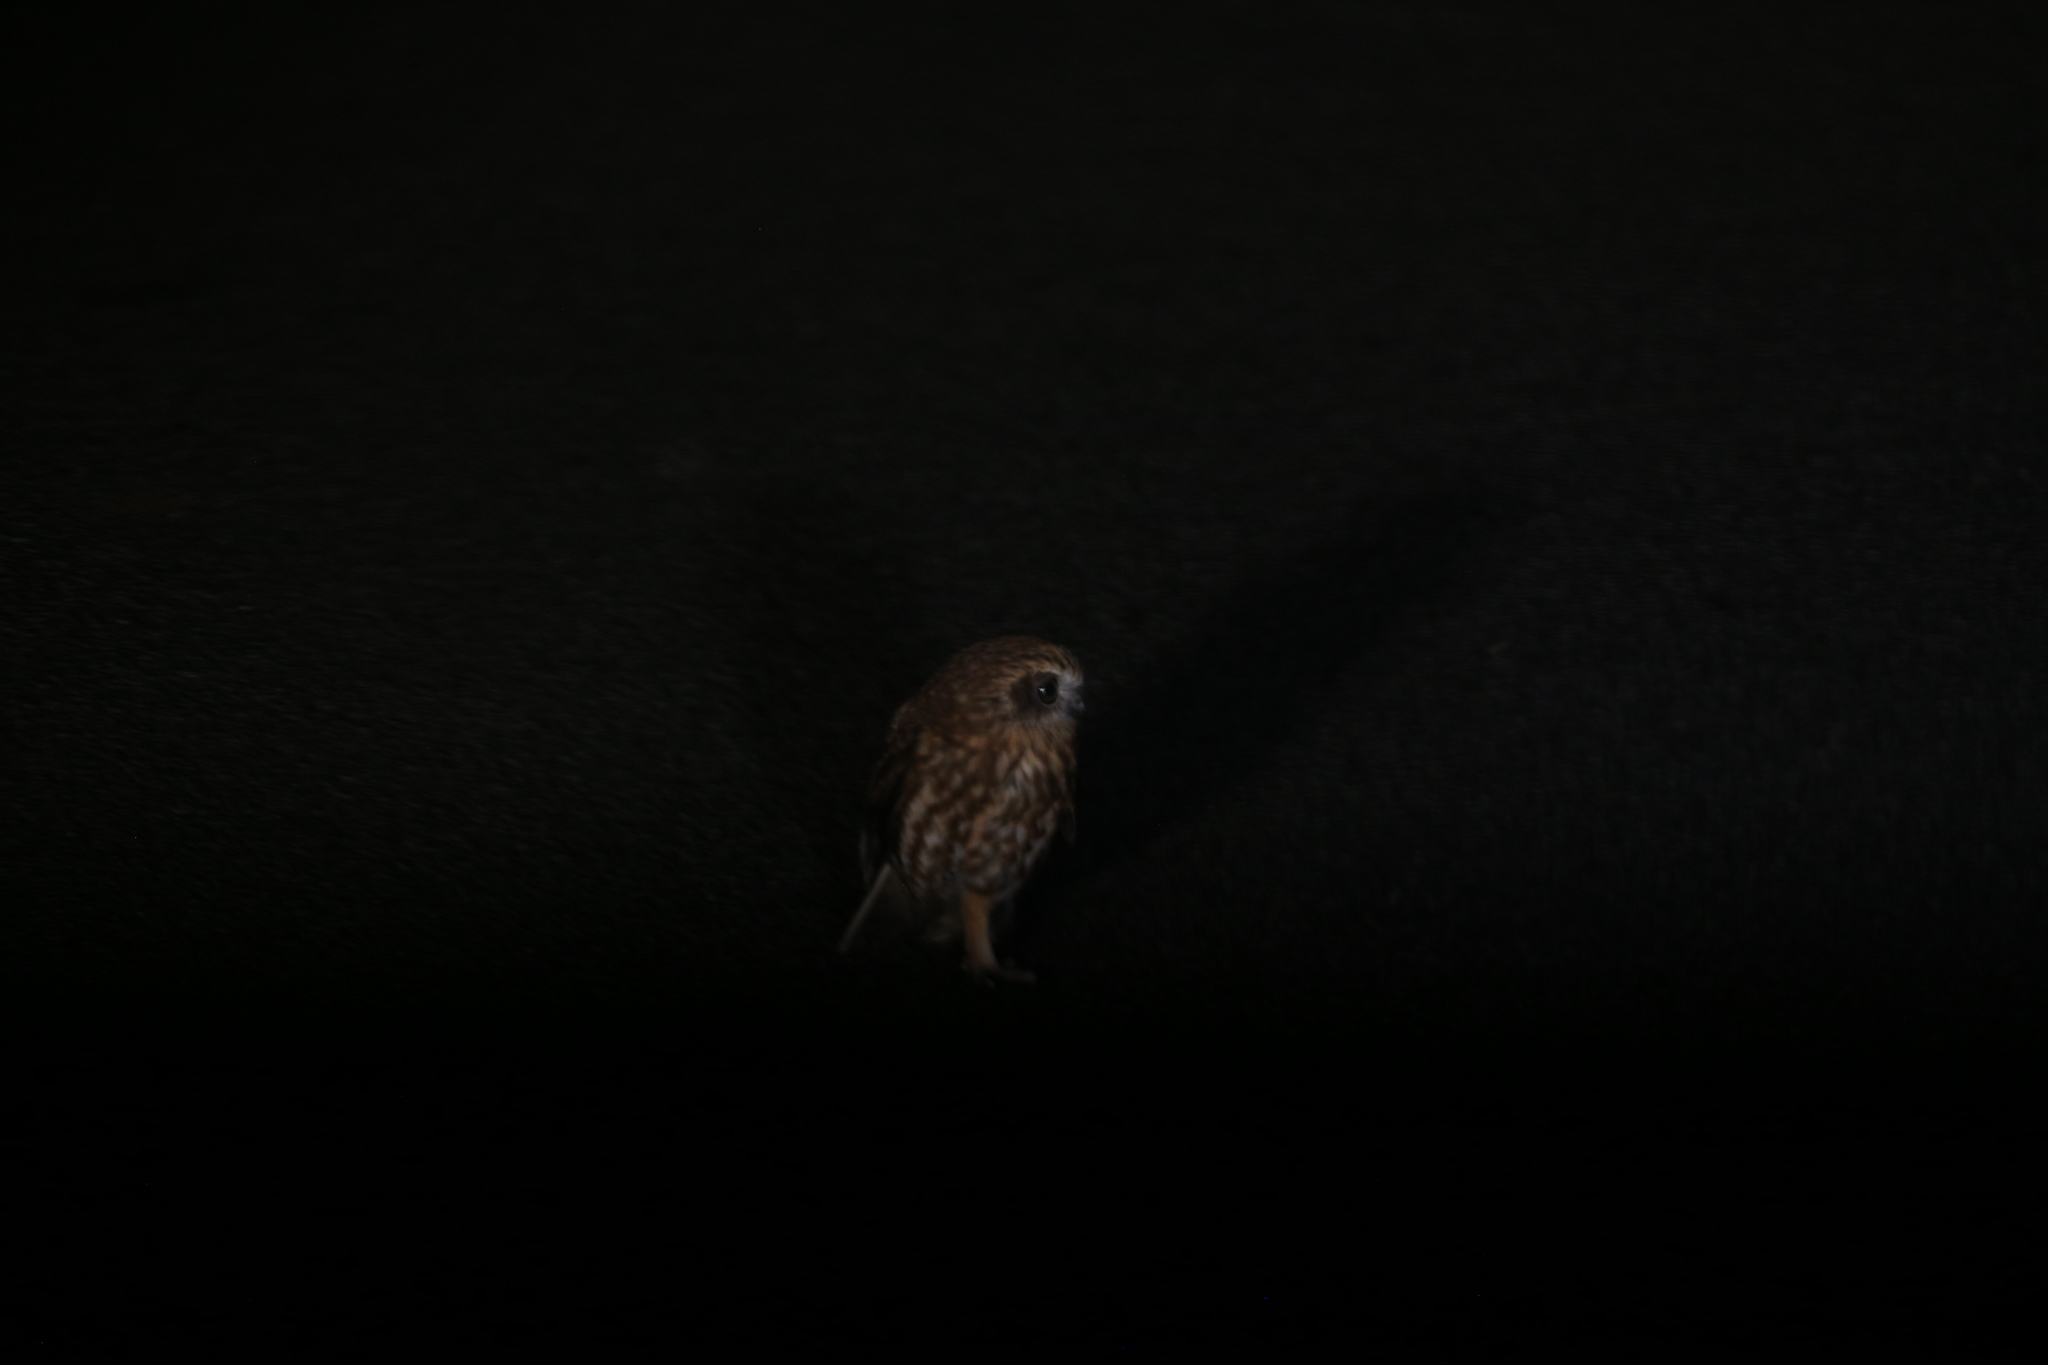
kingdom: Animalia
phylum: Chordata
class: Aves
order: Strigiformes
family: Strigidae
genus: Ninox
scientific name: Ninox boobook
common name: Southern boobook
